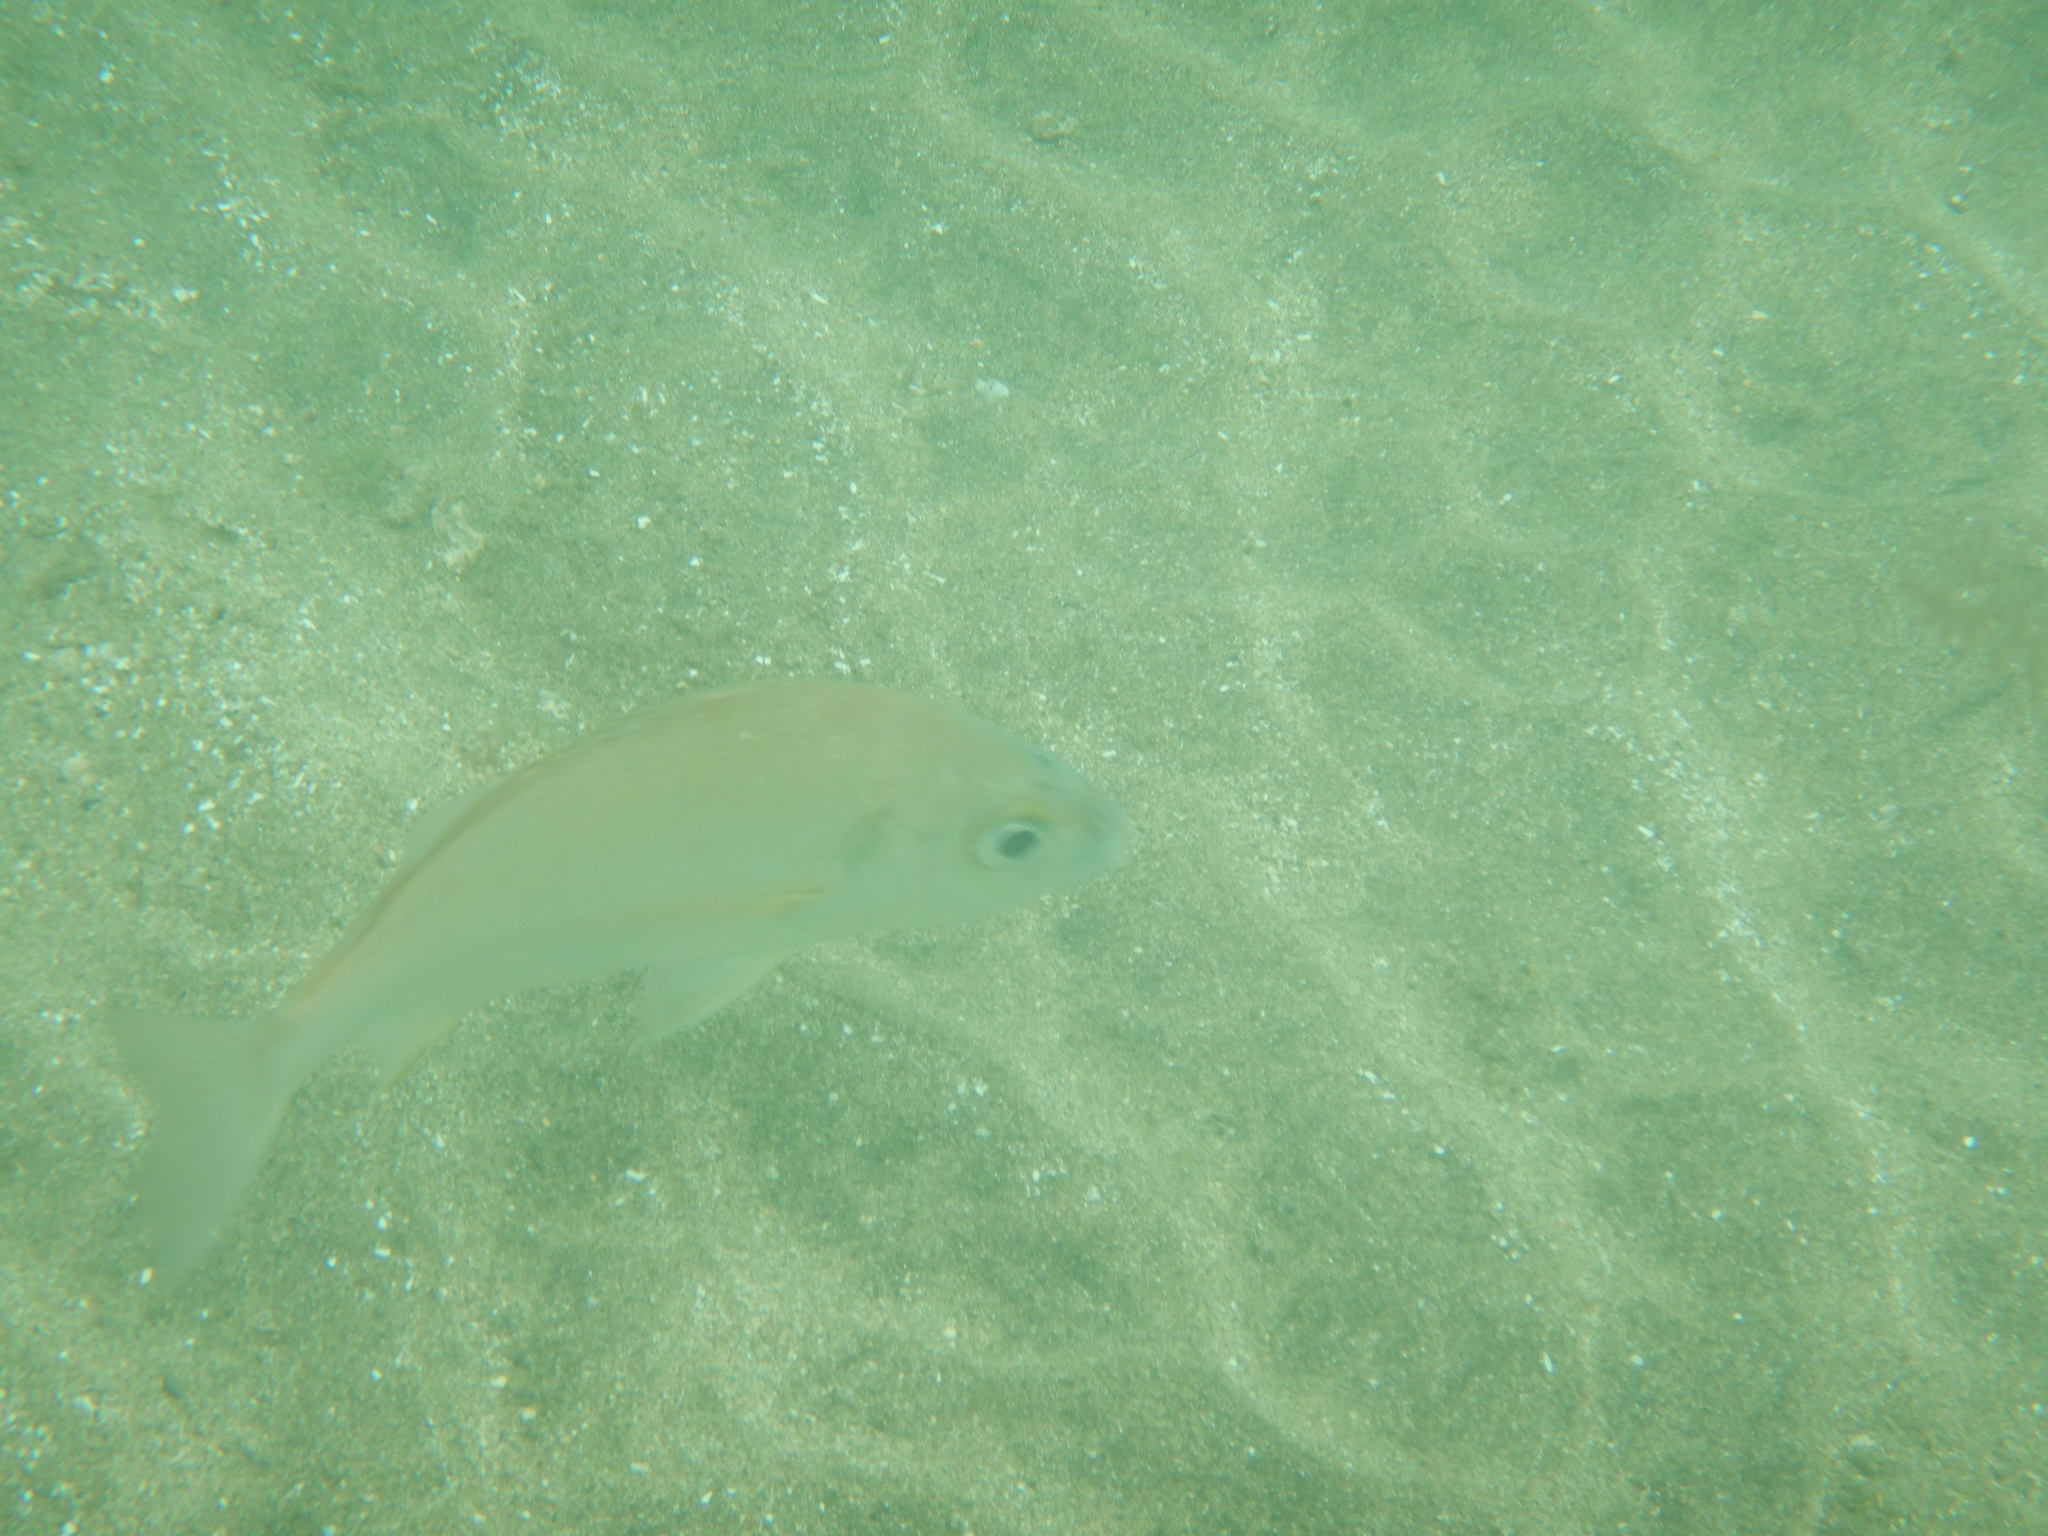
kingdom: Animalia
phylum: Chordata
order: Perciformes
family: Haemulidae
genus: Pomadasys
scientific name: Pomadasys incisus
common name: Bastard grunt
